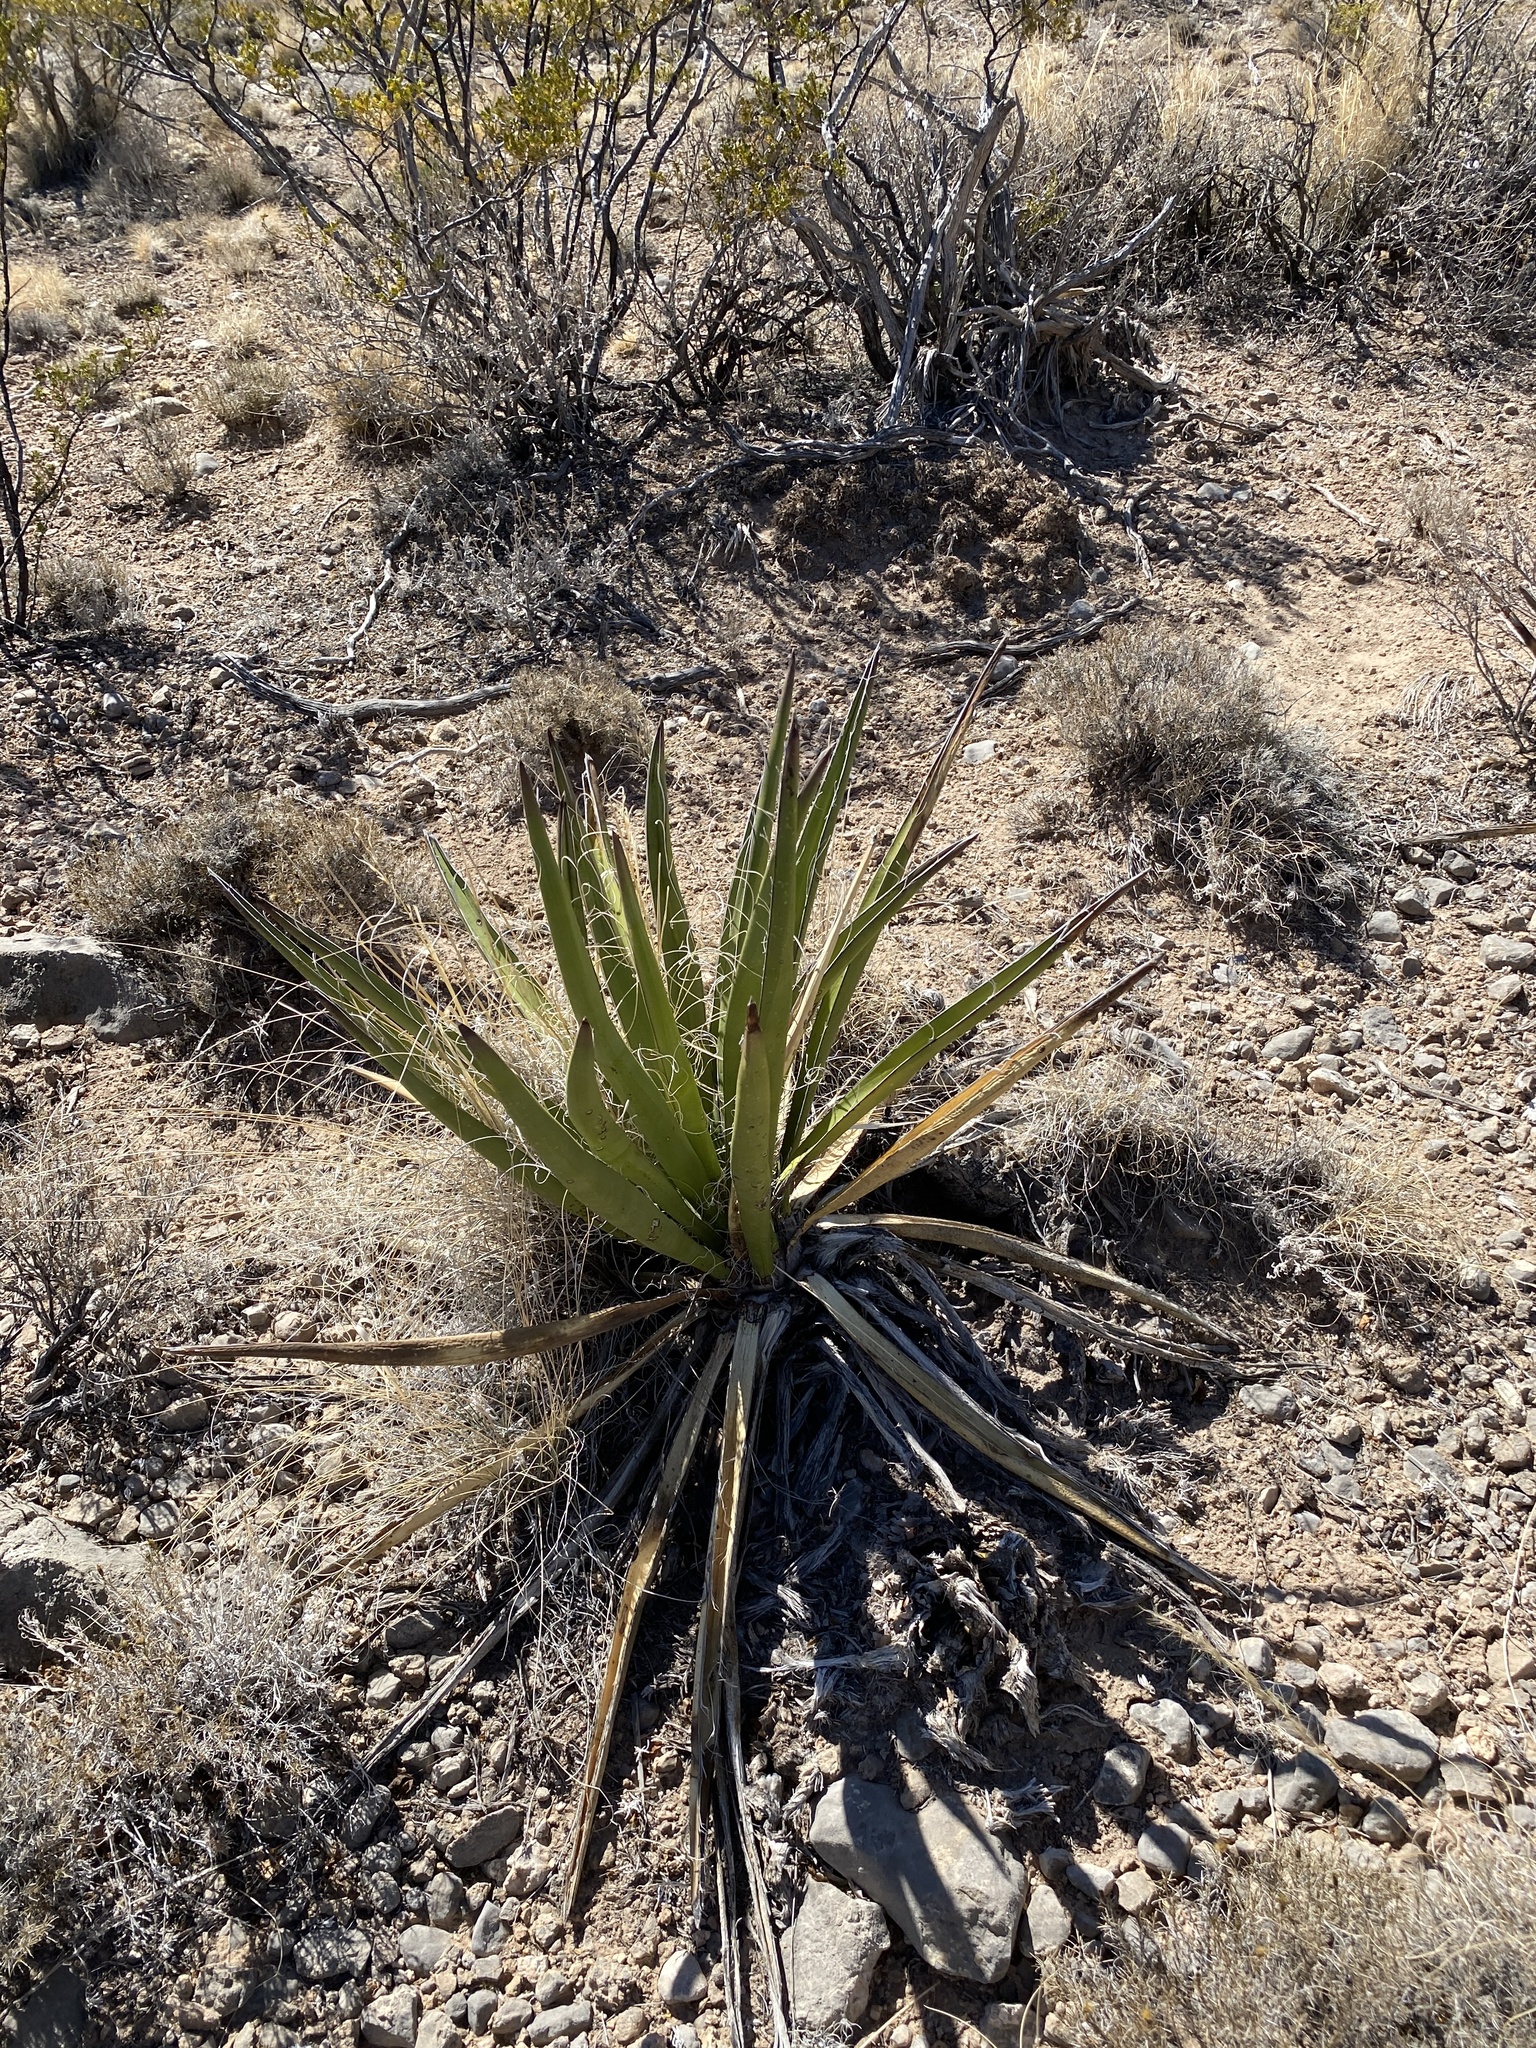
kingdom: Plantae
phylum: Tracheophyta
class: Liliopsida
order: Asparagales
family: Asparagaceae
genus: Yucca
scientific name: Yucca baccata
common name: Banana yucca
